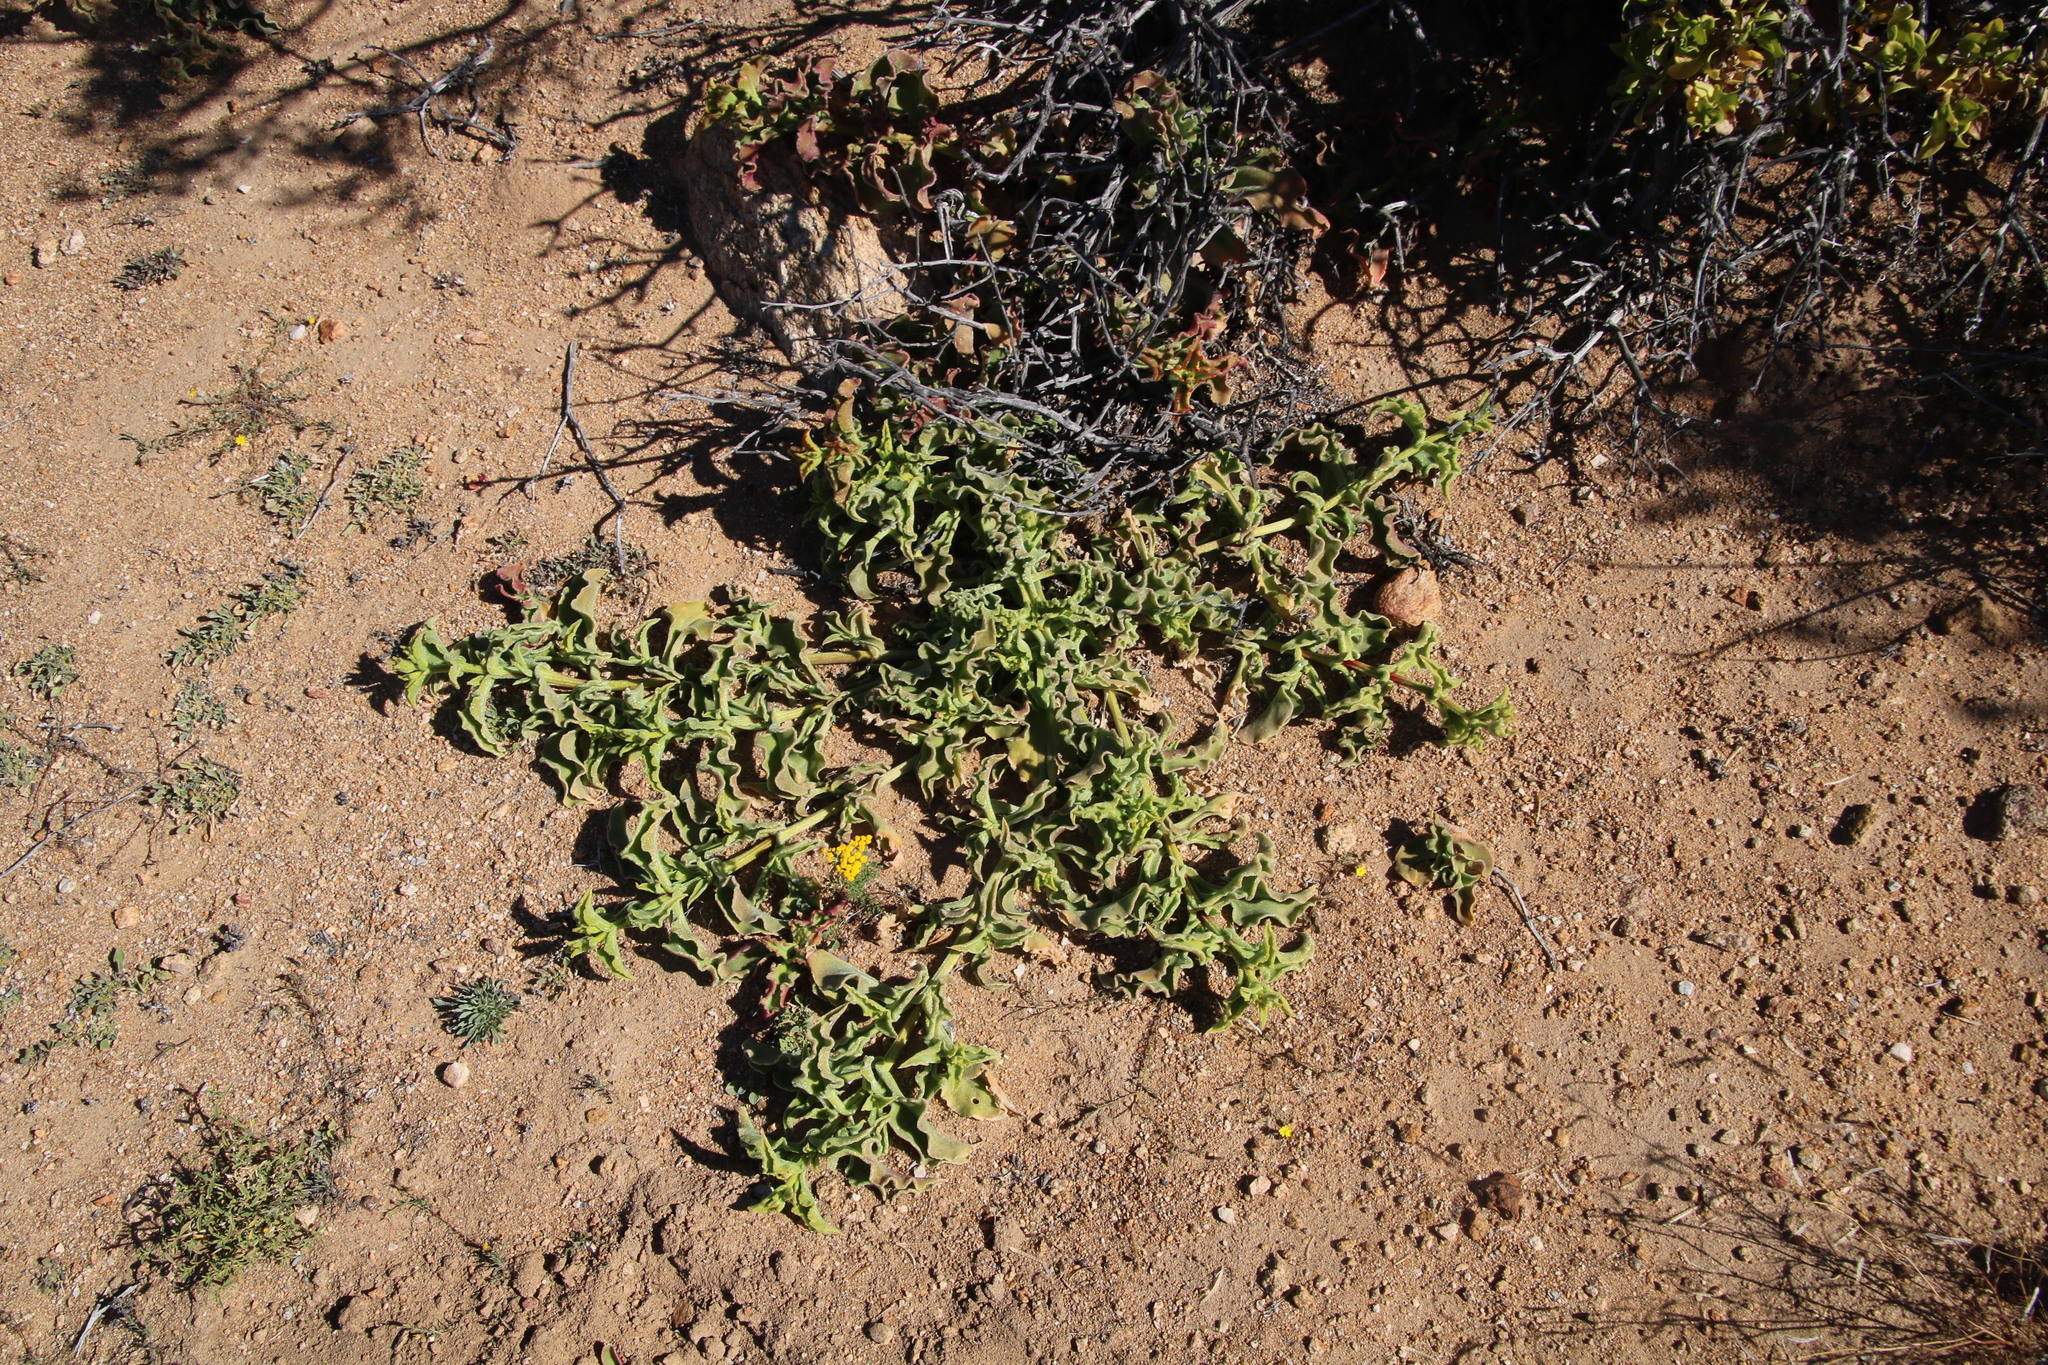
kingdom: Plantae
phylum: Tracheophyta
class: Magnoliopsida
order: Caryophyllales
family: Aizoaceae
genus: Mesembryanthemum
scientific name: Mesembryanthemum crystallinum
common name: Common iceplant
